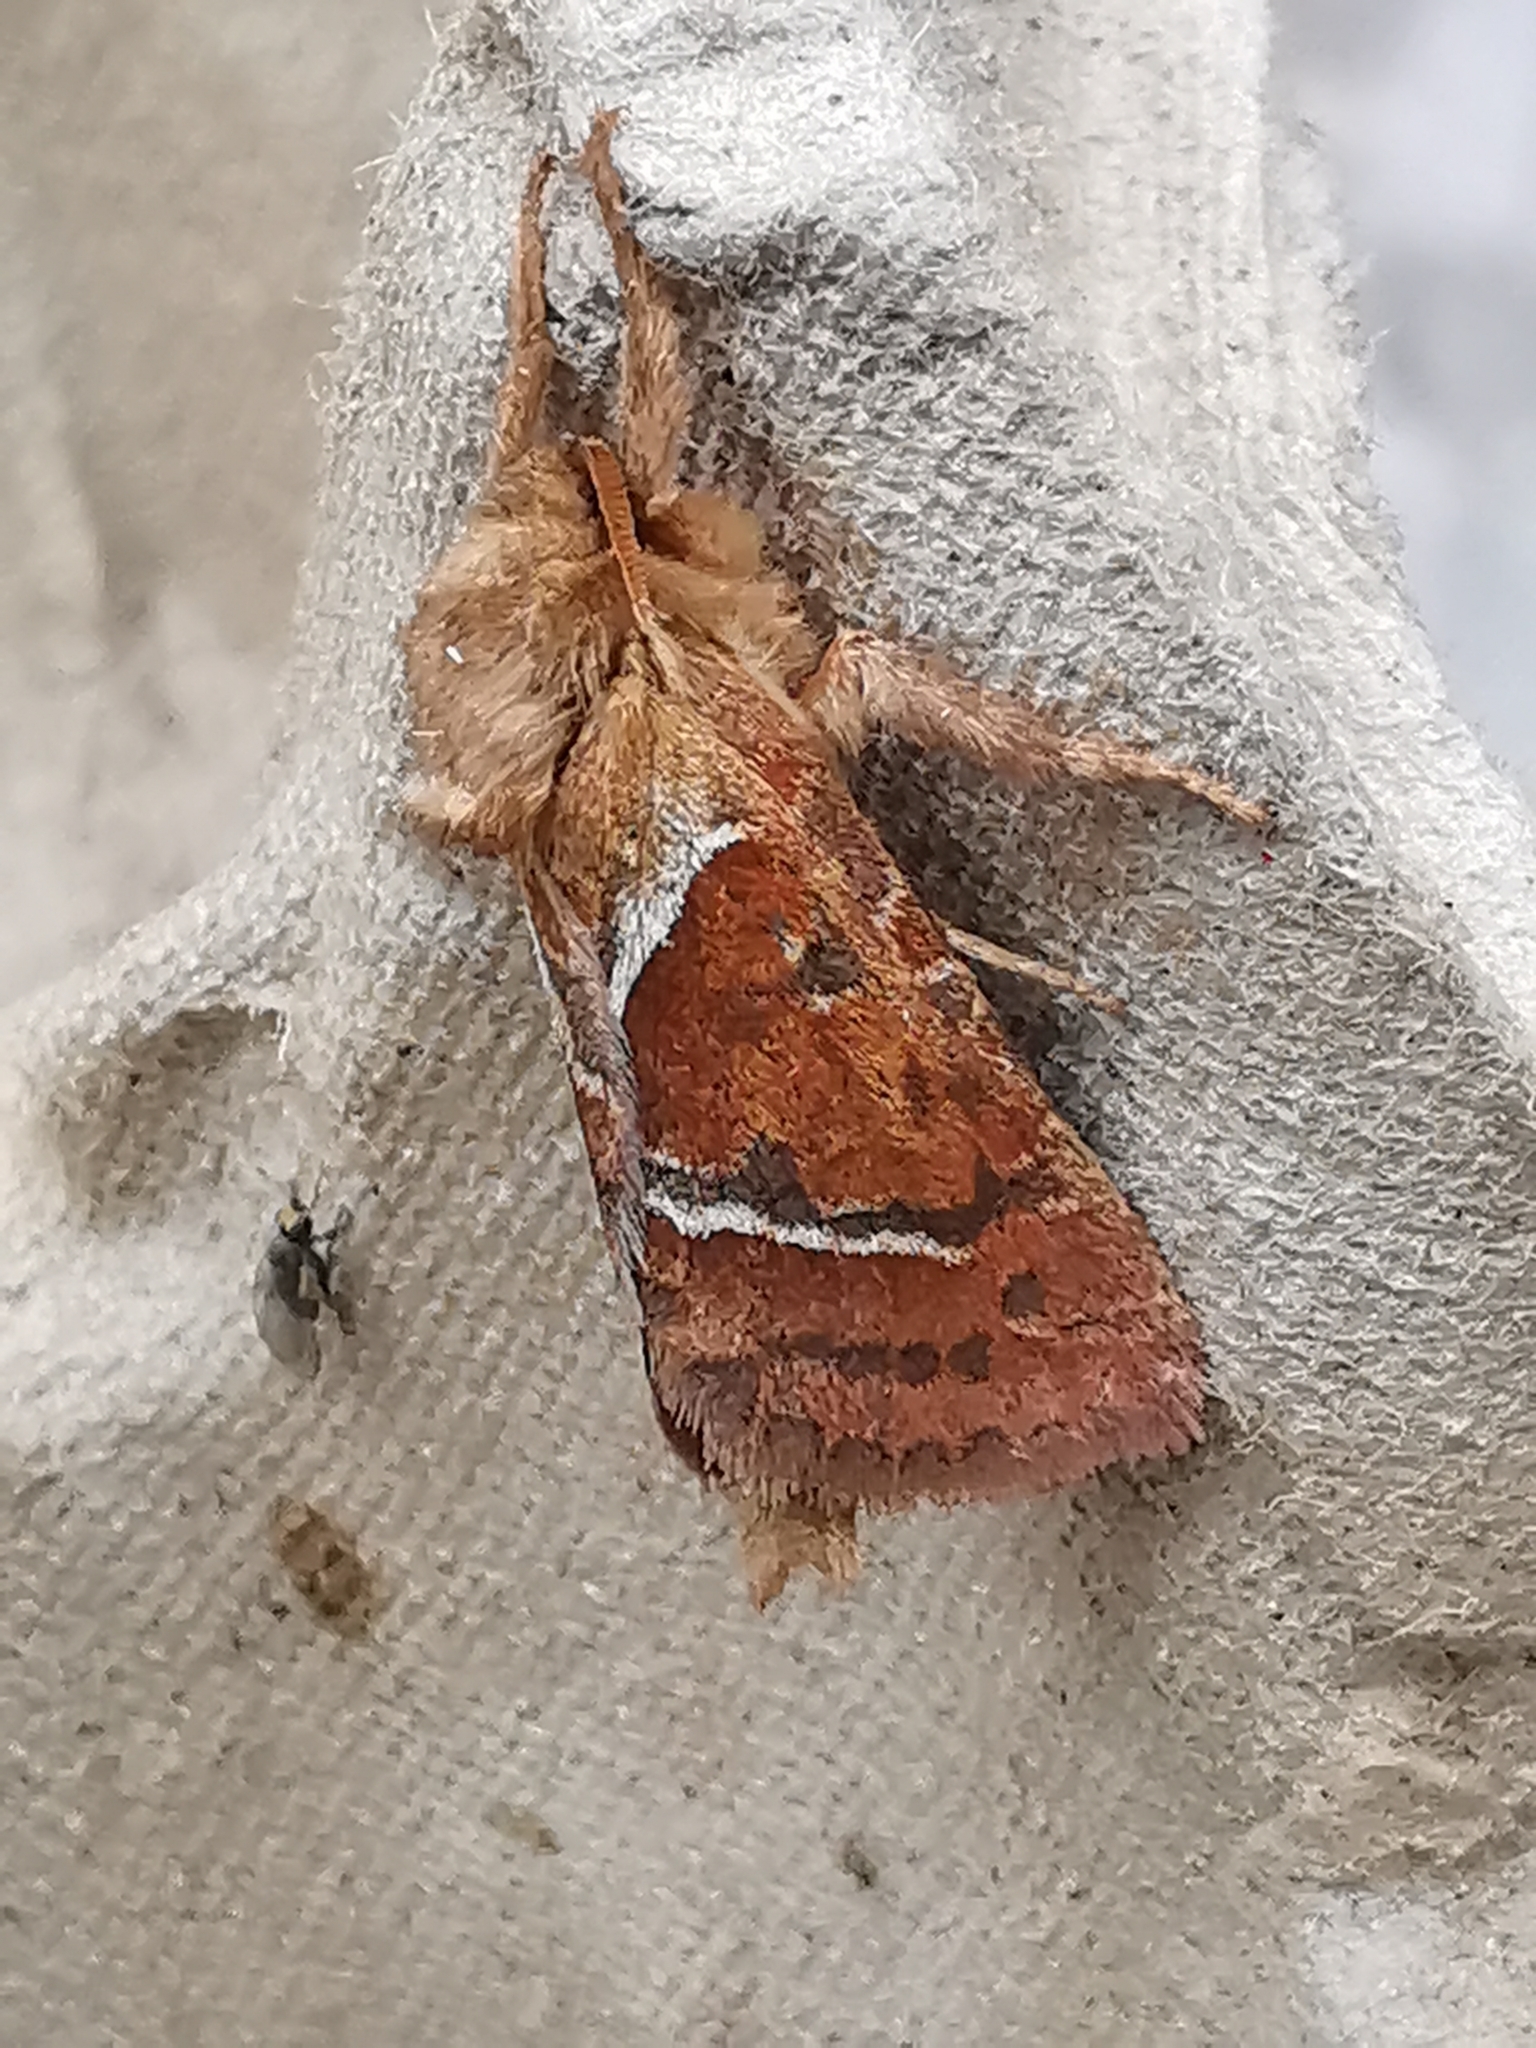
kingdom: Animalia
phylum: Arthropoda
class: Insecta
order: Lepidoptera
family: Hepialidae
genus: Triodia
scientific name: Triodia sylvina
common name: Orange swift
